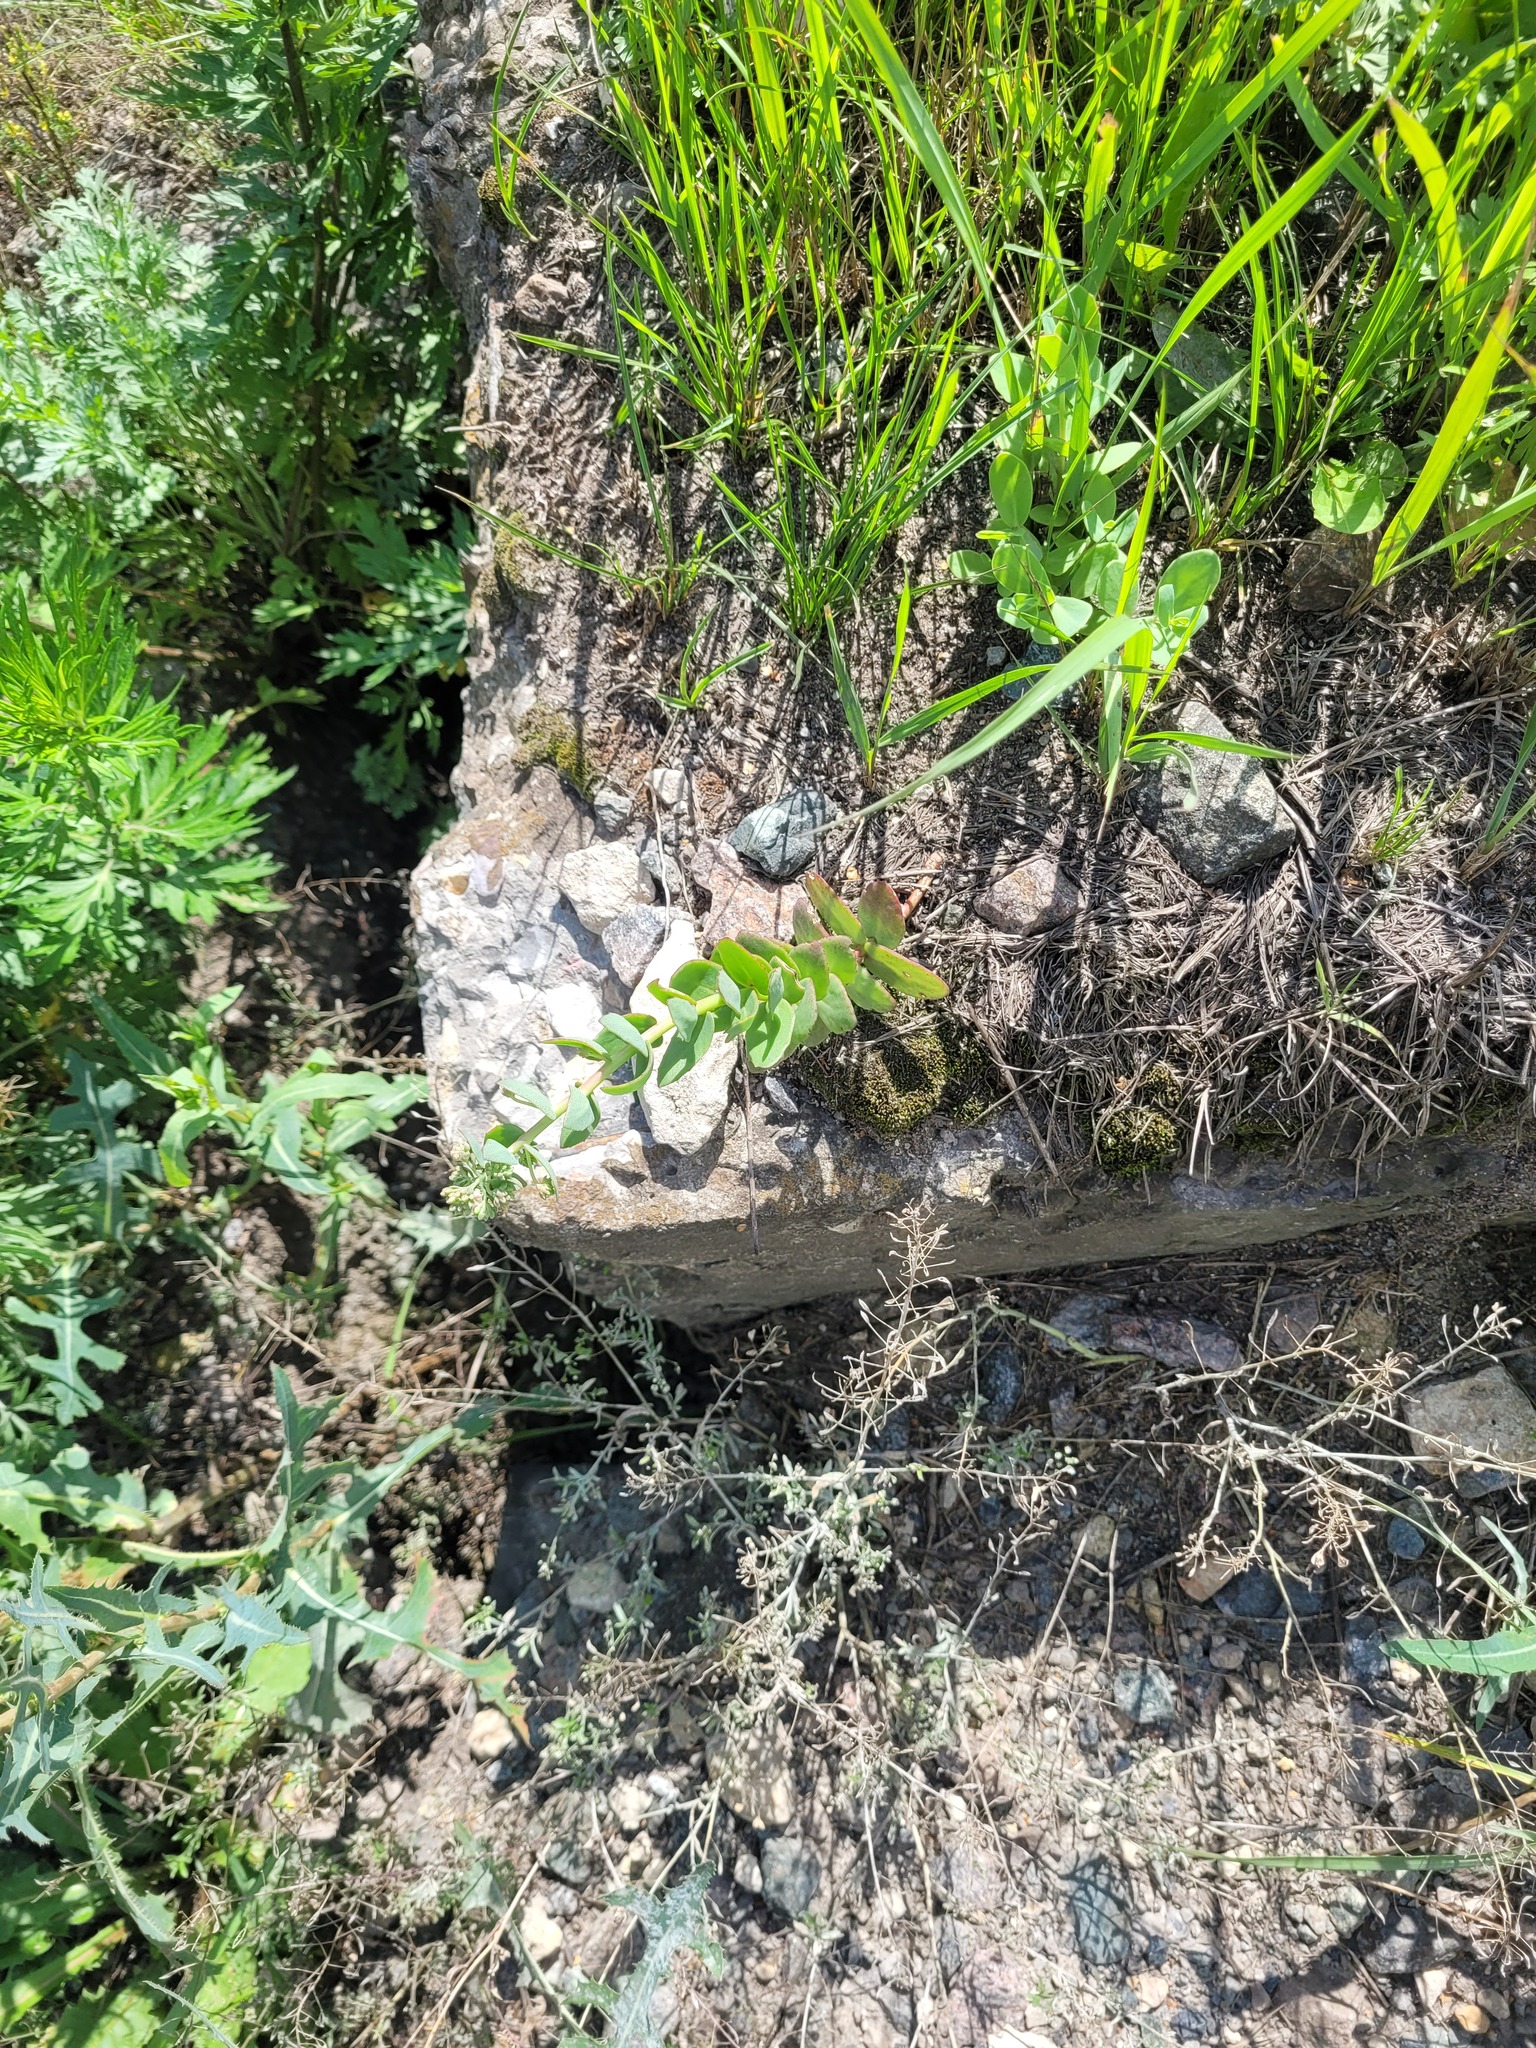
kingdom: Plantae
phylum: Tracheophyta
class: Magnoliopsida
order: Saxifragales
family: Crassulaceae
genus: Hylotelephium
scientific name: Hylotelephium maximum
